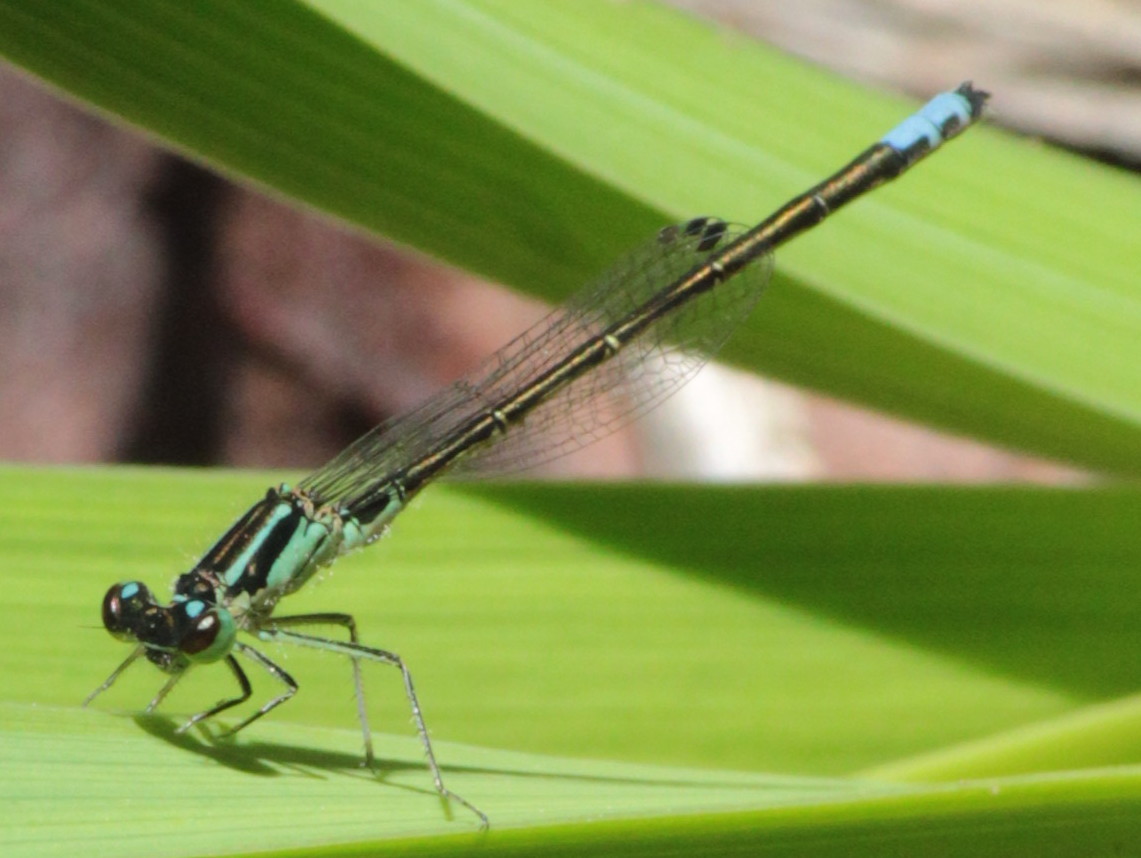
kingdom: Animalia
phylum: Arthropoda
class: Insecta
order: Odonata
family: Coenagrionidae
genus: Ischnura
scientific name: Ischnura verticalis
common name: Eastern forktail
